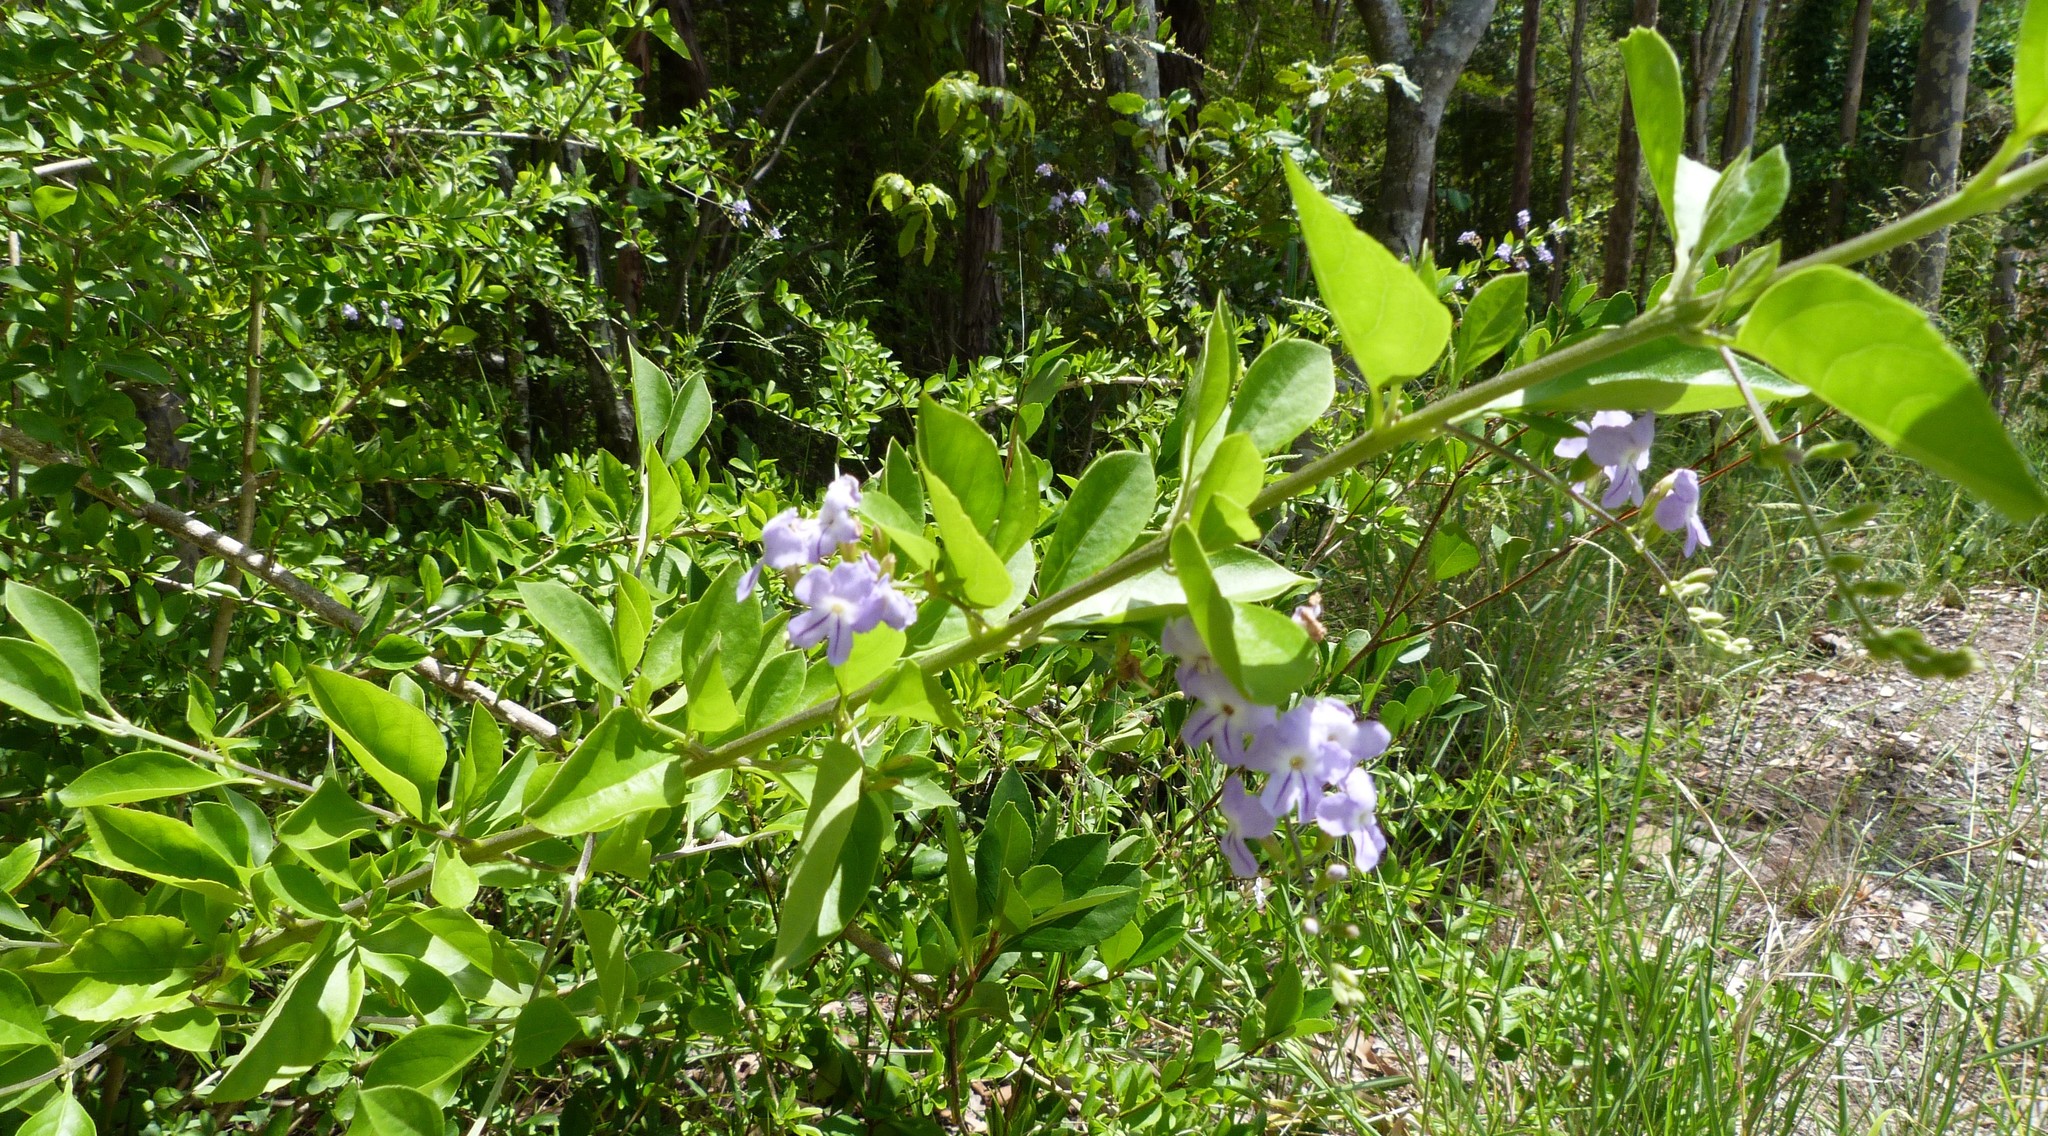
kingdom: Plantae
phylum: Tracheophyta
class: Magnoliopsida
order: Lamiales
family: Verbenaceae
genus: Duranta
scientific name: Duranta erecta
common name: Golden dewdrops
